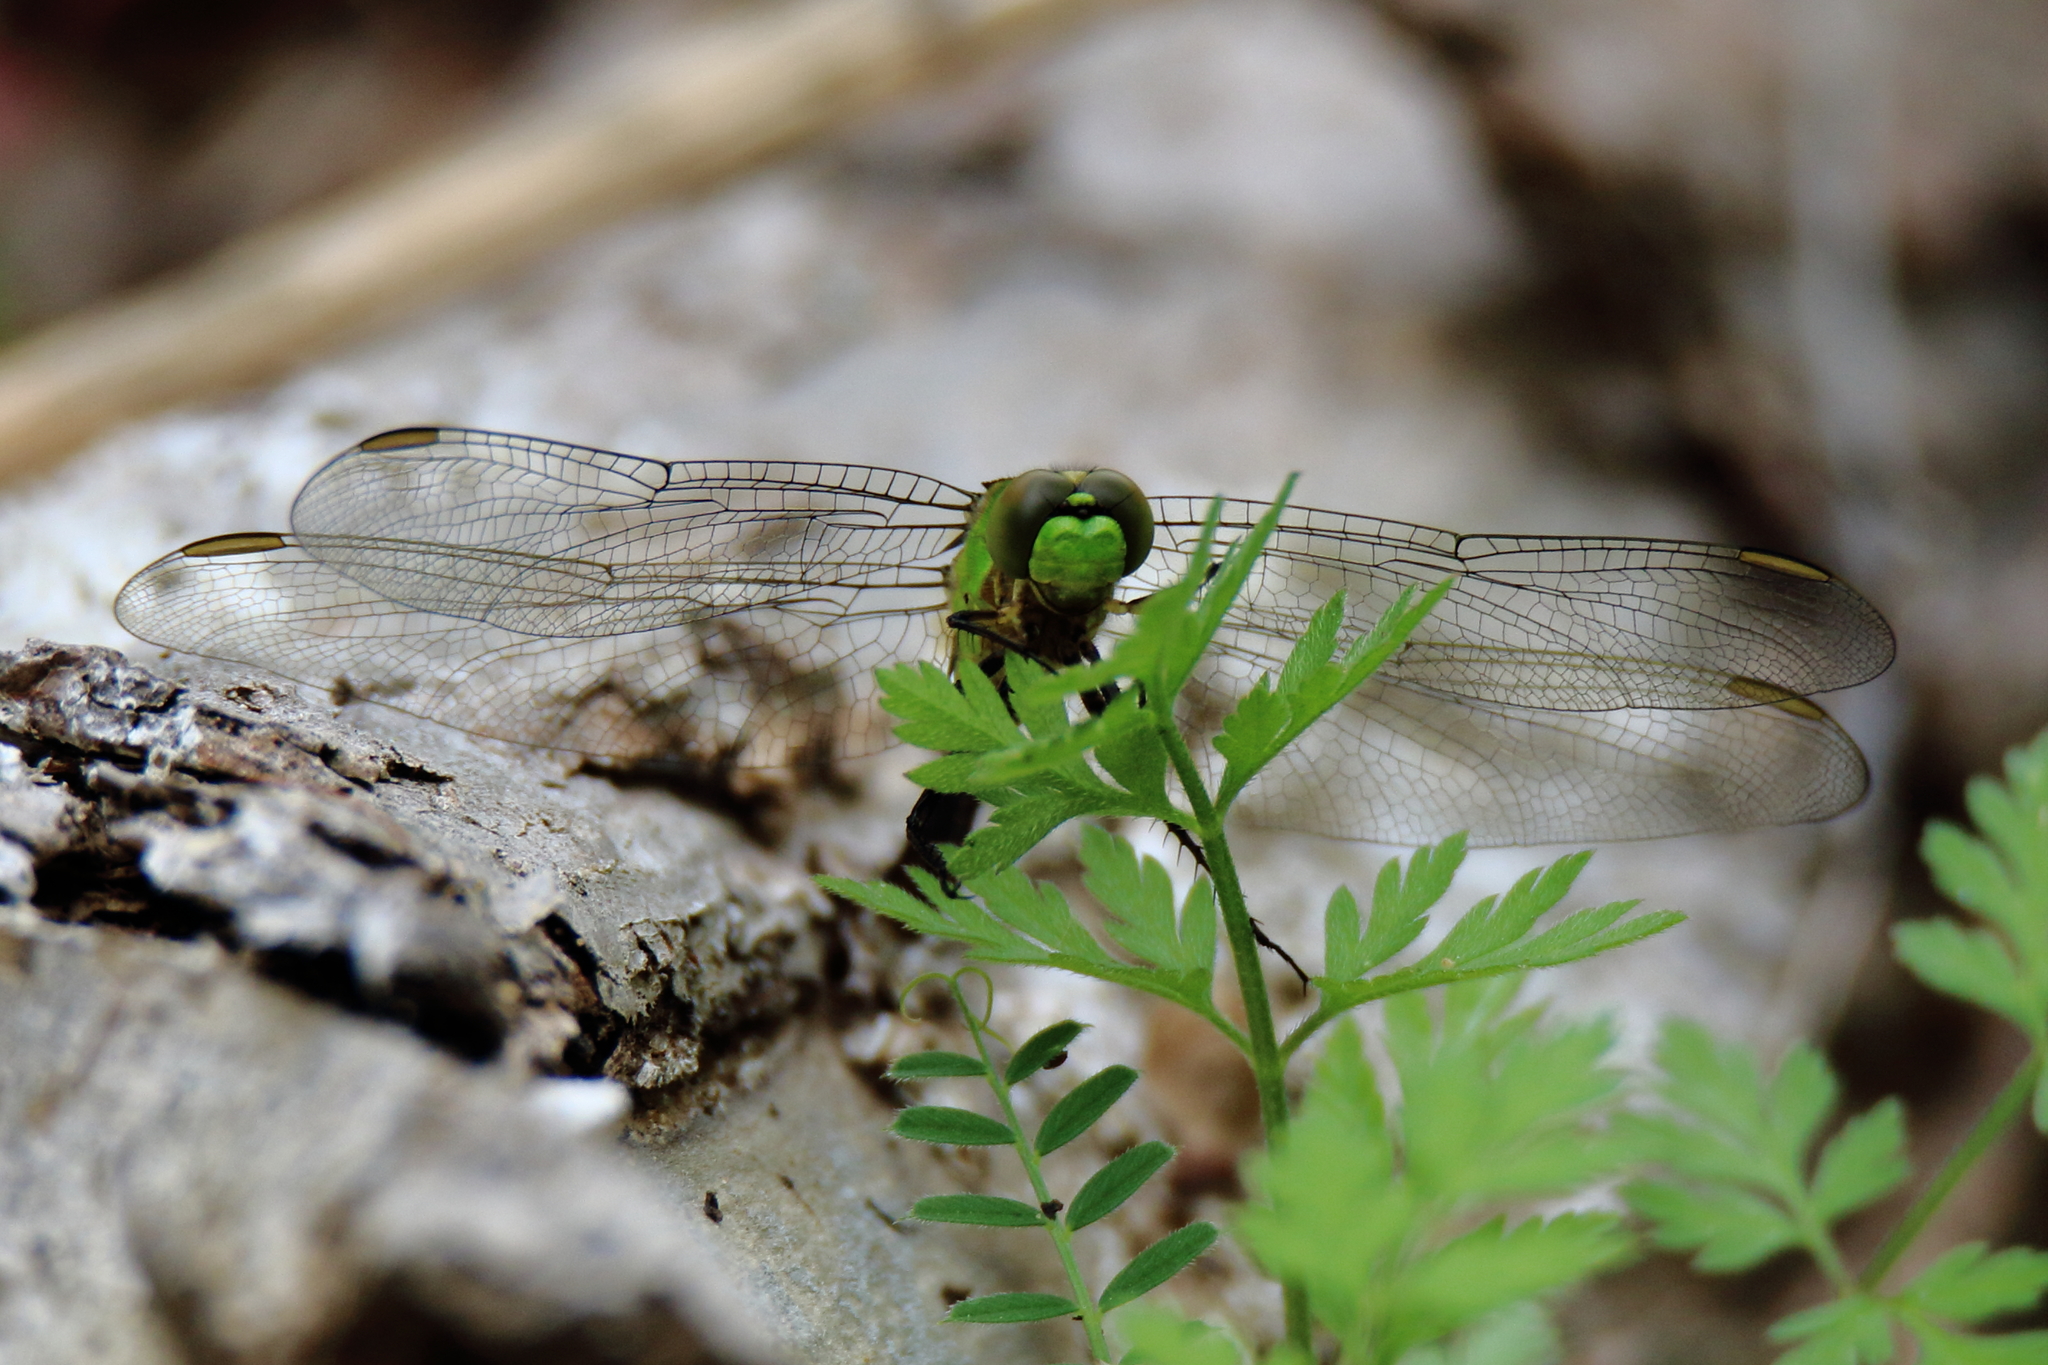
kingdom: Animalia
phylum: Arthropoda
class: Insecta
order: Odonata
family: Libellulidae
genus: Erythemis
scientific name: Erythemis simplicicollis
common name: Eastern pondhawk
